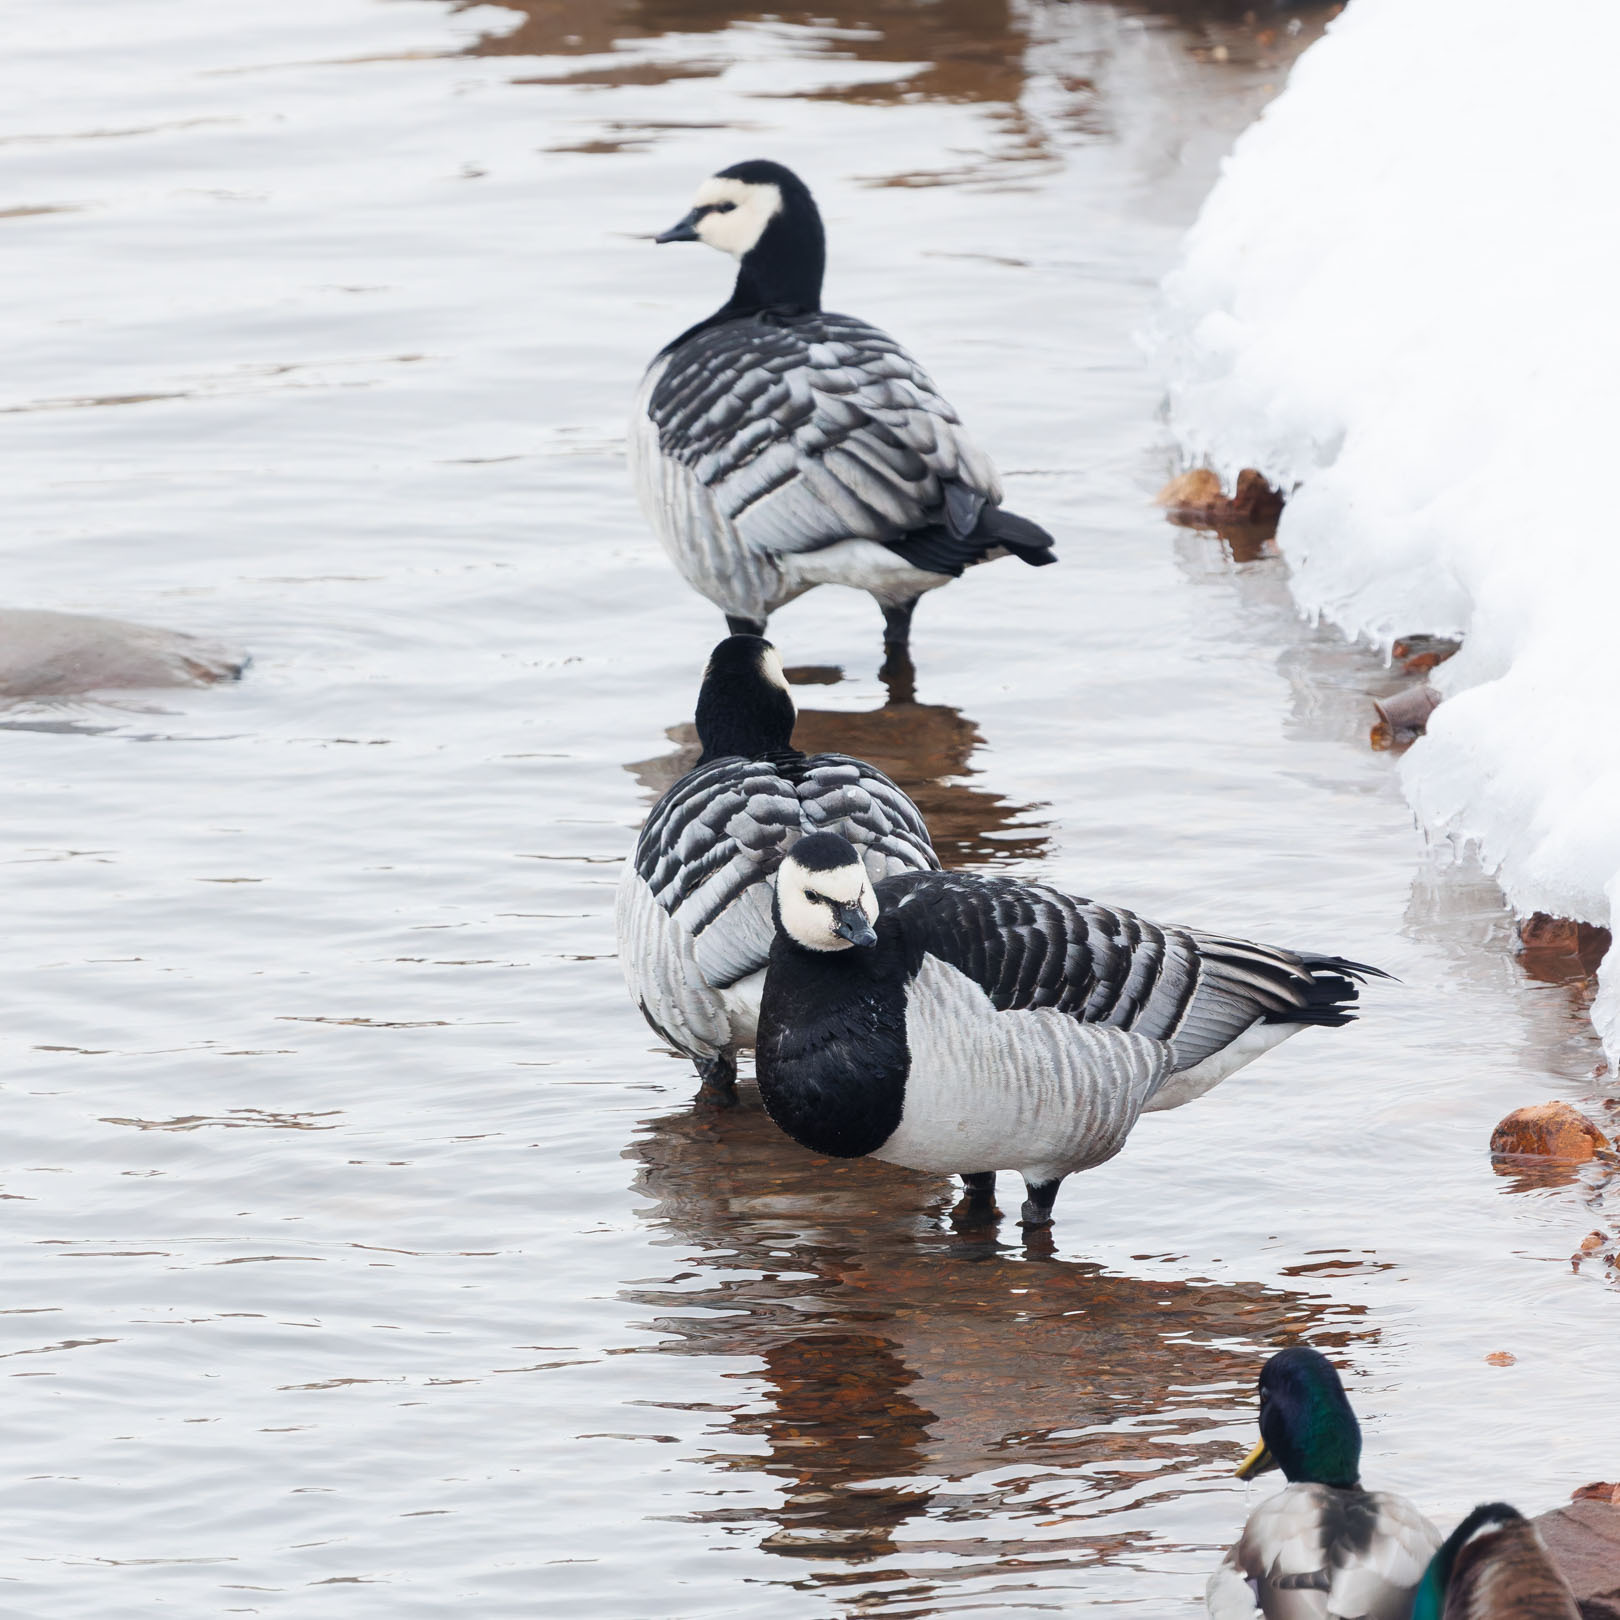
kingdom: Animalia
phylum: Chordata
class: Aves
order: Anseriformes
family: Anatidae
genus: Branta
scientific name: Branta leucopsis
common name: Barnacle goose
